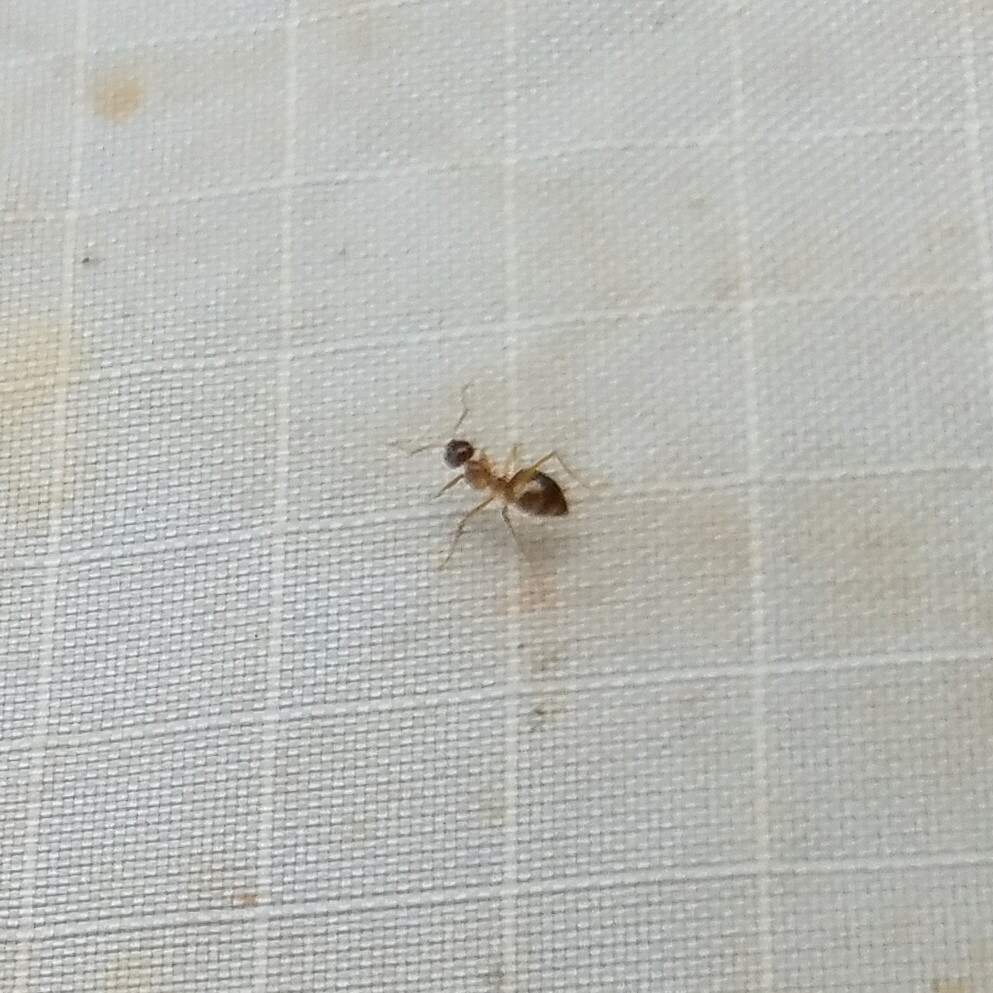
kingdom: Animalia
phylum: Arthropoda
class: Insecta
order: Hymenoptera
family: Formicidae
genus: Prenolepis
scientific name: Prenolepis imparis
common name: Small honey ant
